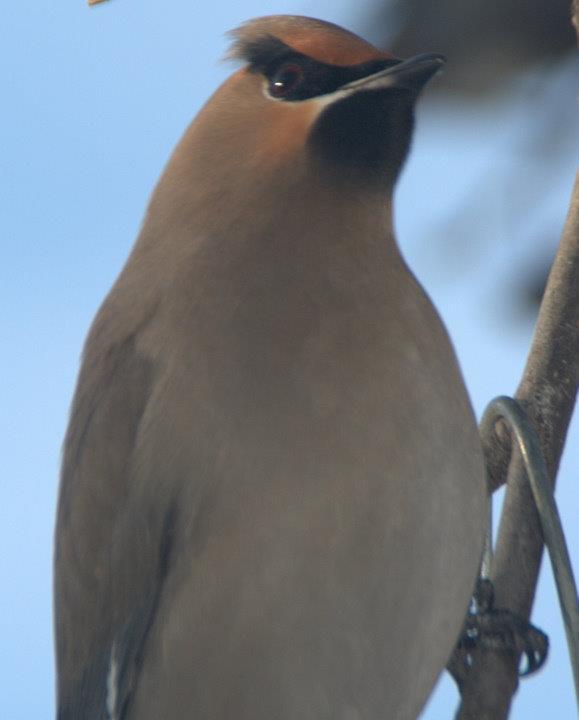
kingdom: Animalia
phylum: Chordata
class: Aves
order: Passeriformes
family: Bombycillidae
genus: Bombycilla
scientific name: Bombycilla garrulus
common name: Bohemian waxwing
